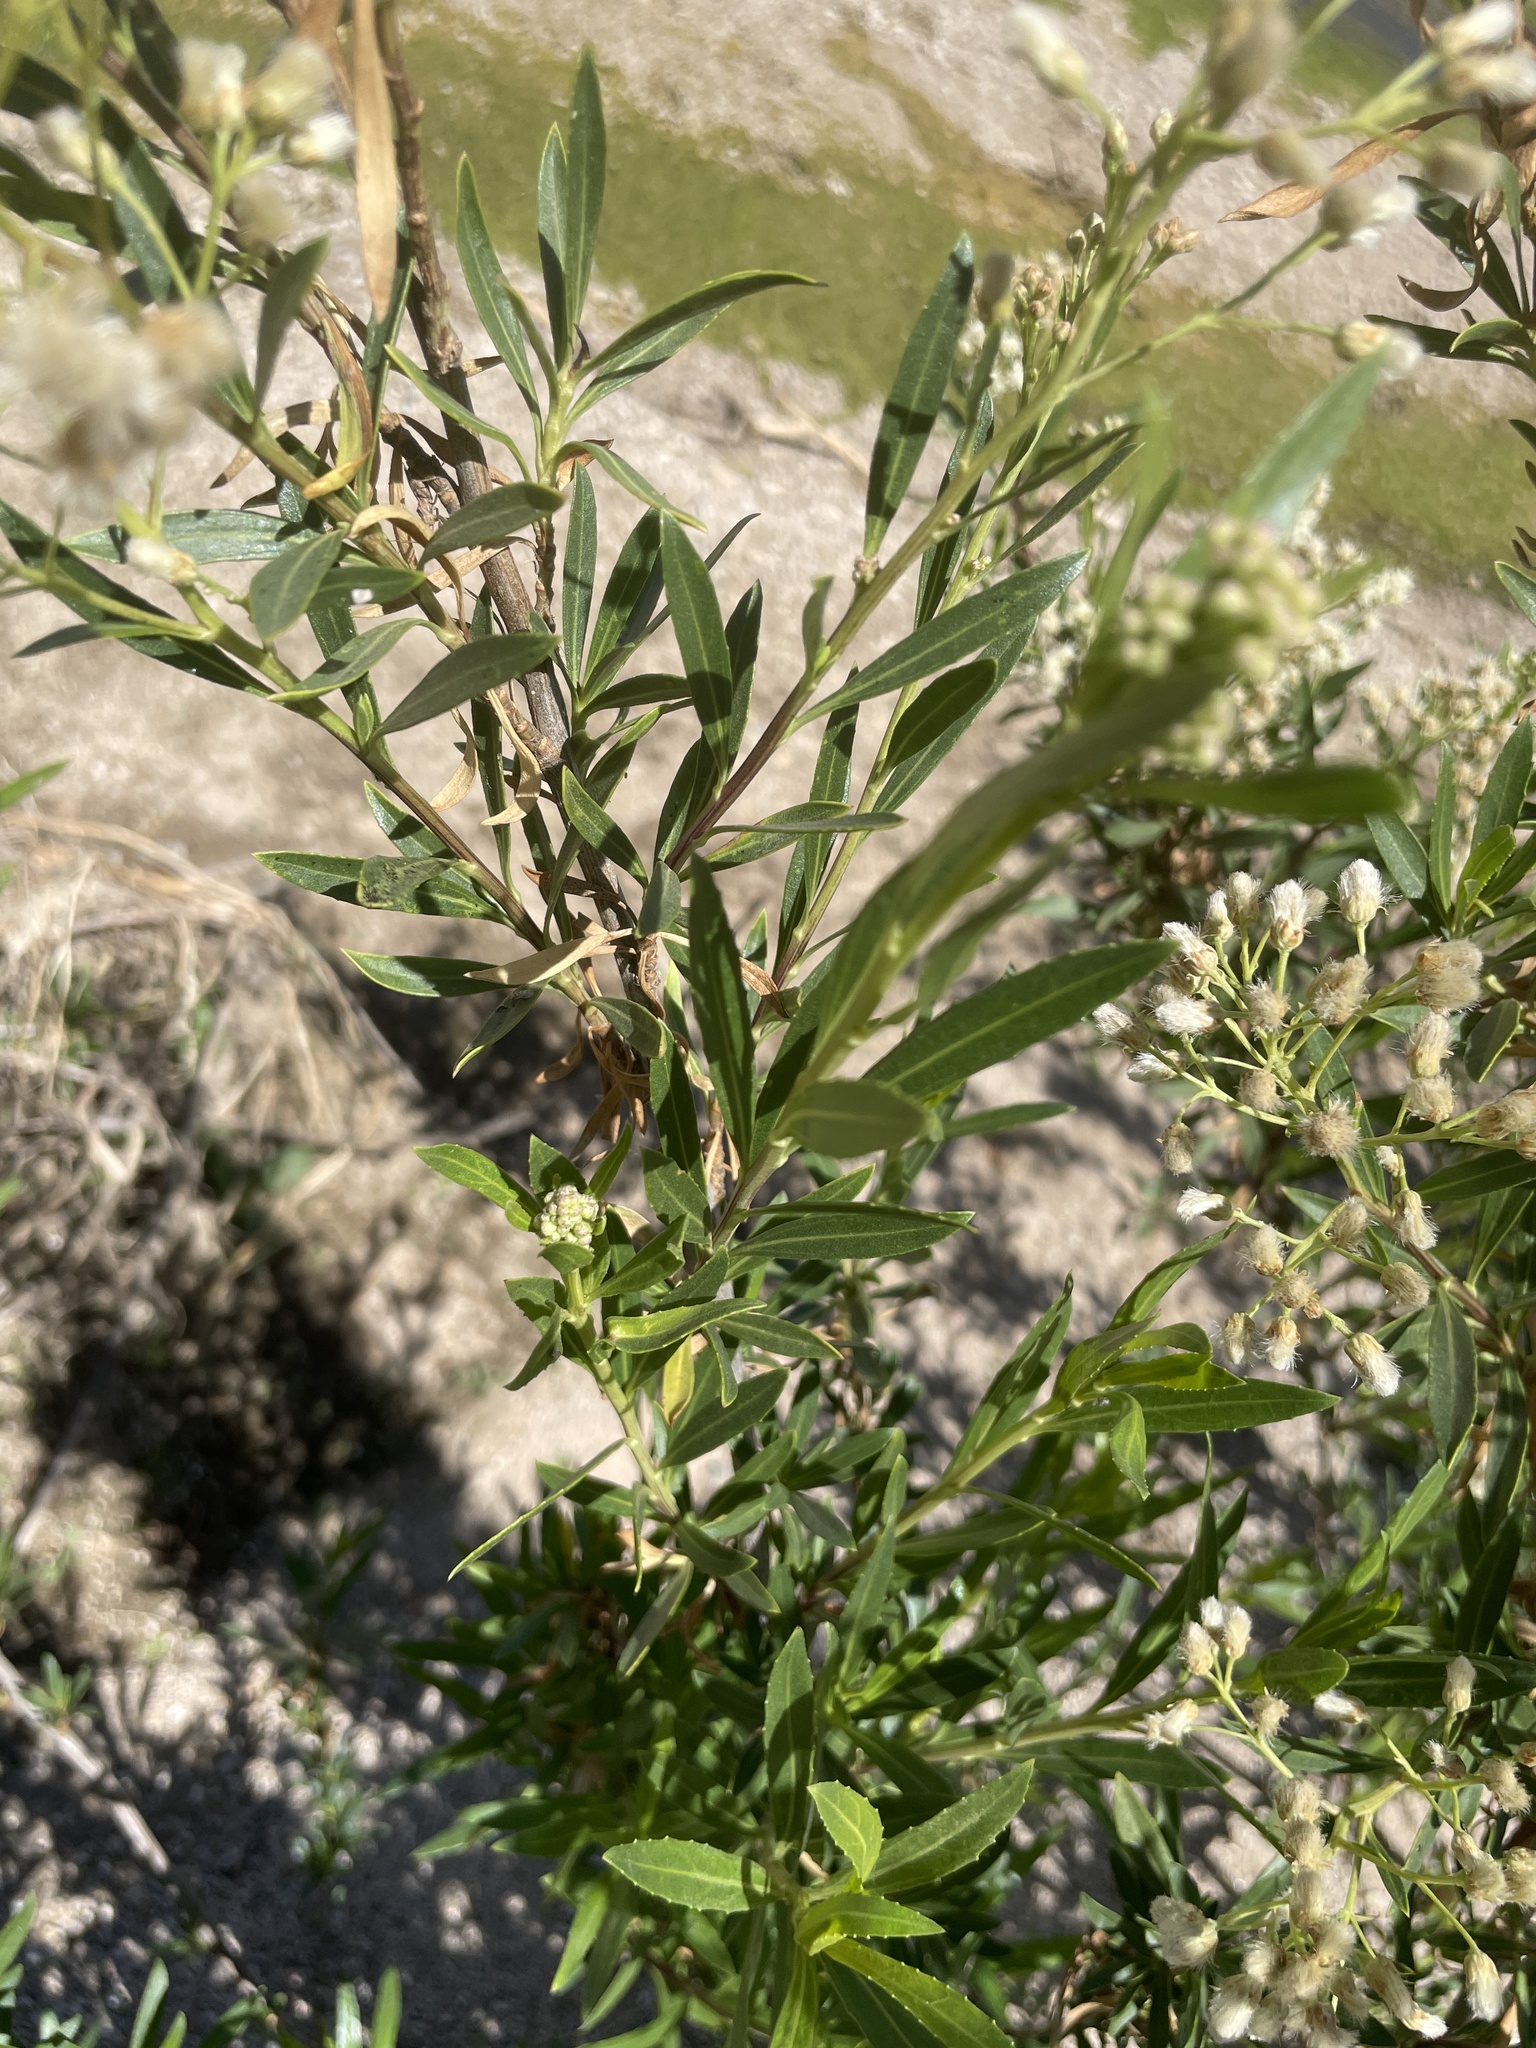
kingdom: Plantae
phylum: Tracheophyta
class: Magnoliopsida
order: Asterales
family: Asteraceae
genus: Baccharis
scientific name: Baccharis salicifolia
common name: Sticky baccharis
